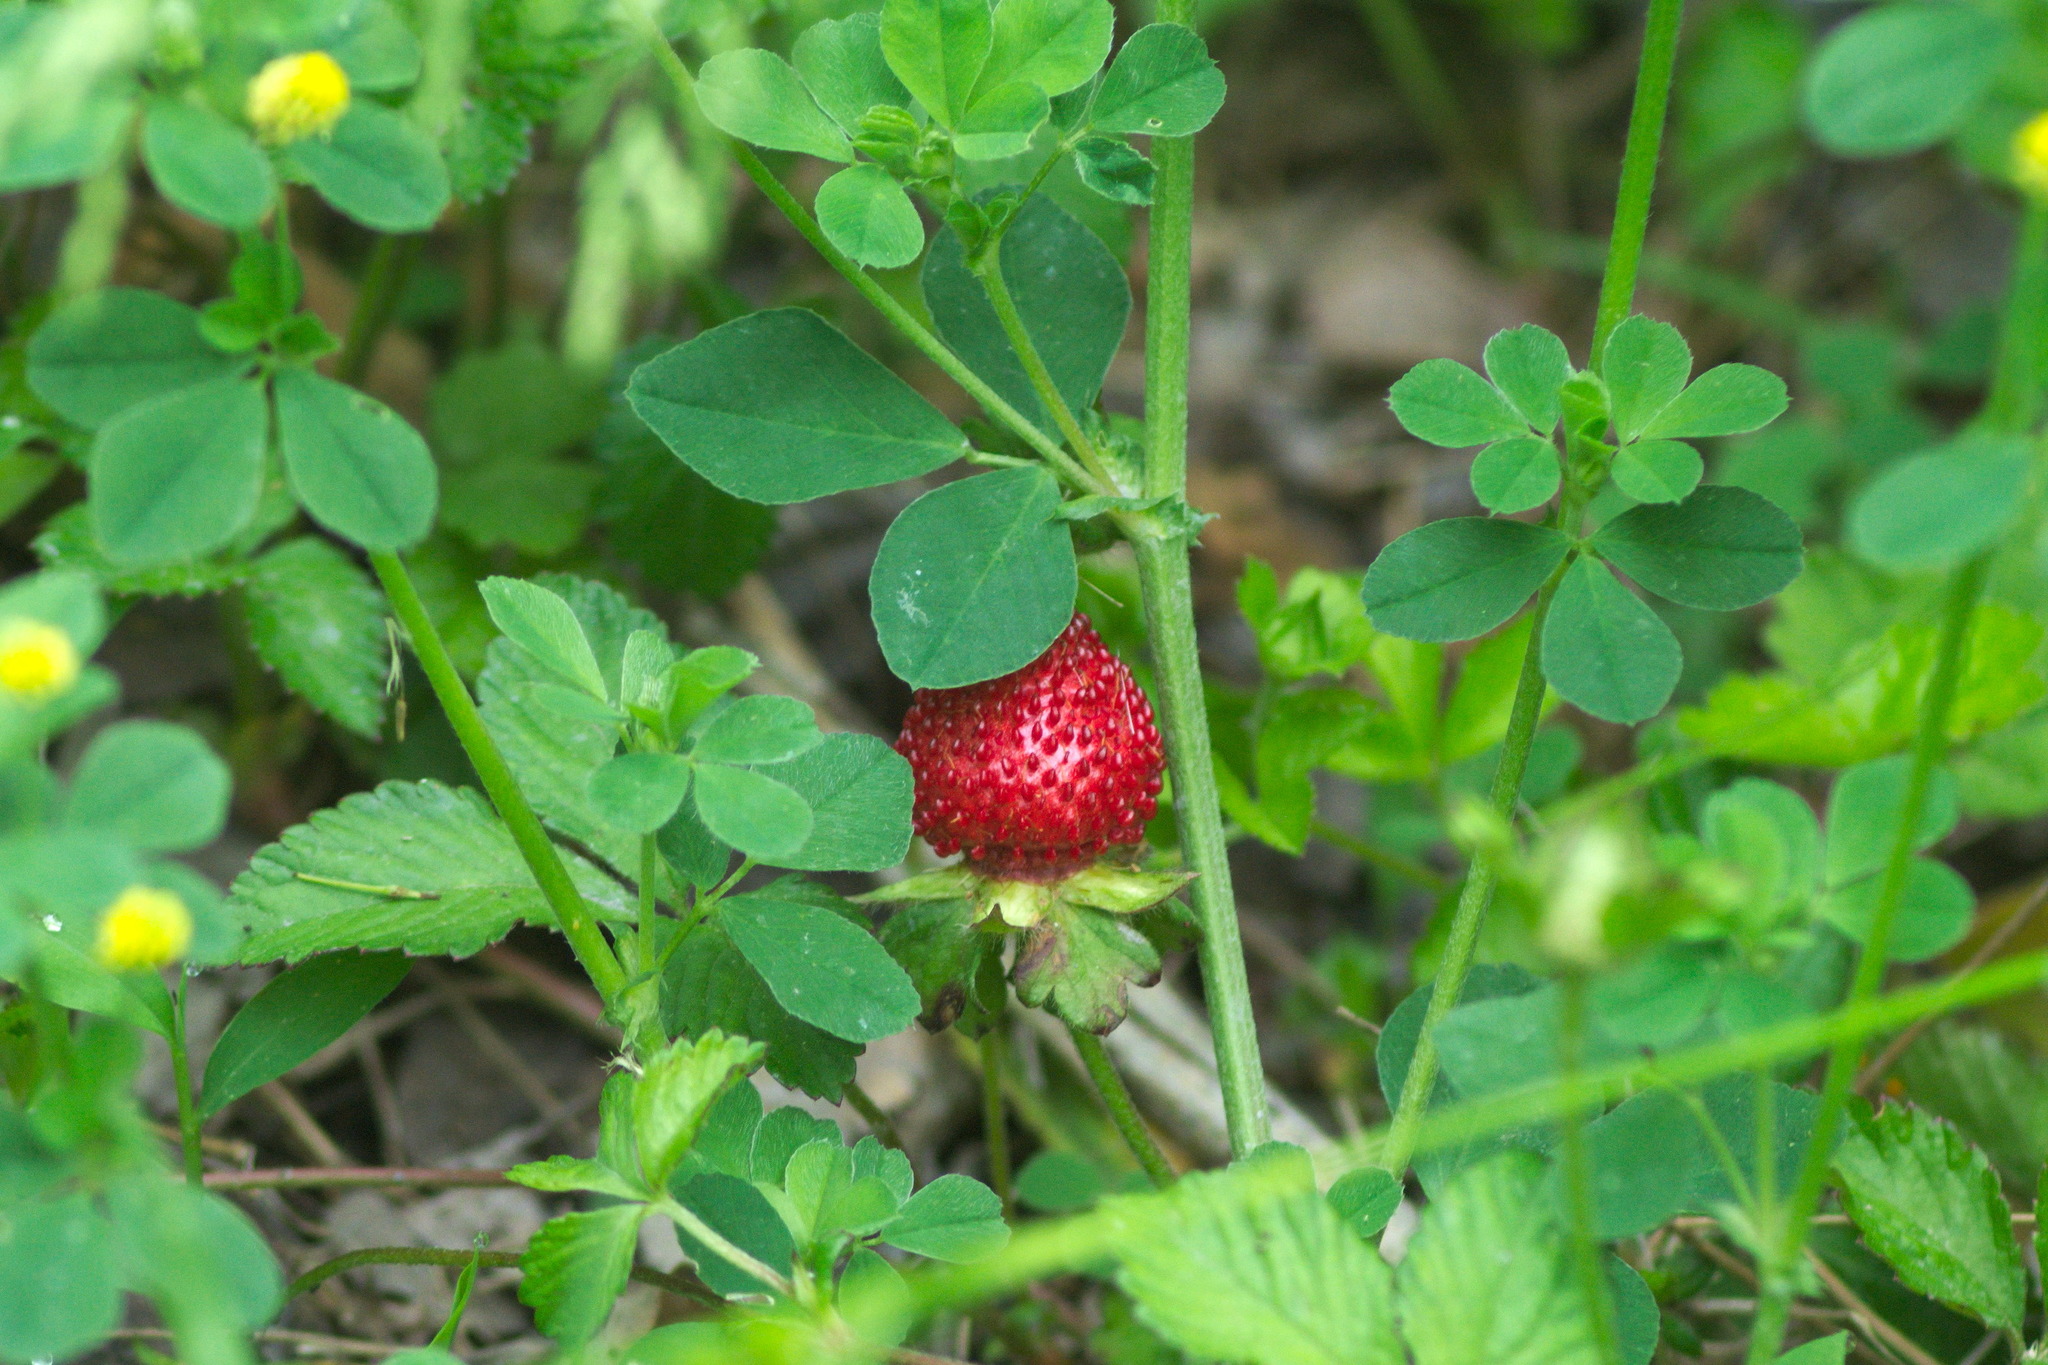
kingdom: Plantae
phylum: Tracheophyta
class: Magnoliopsida
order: Rosales
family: Rosaceae
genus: Potentilla
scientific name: Potentilla indica
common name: Yellow-flowered strawberry
